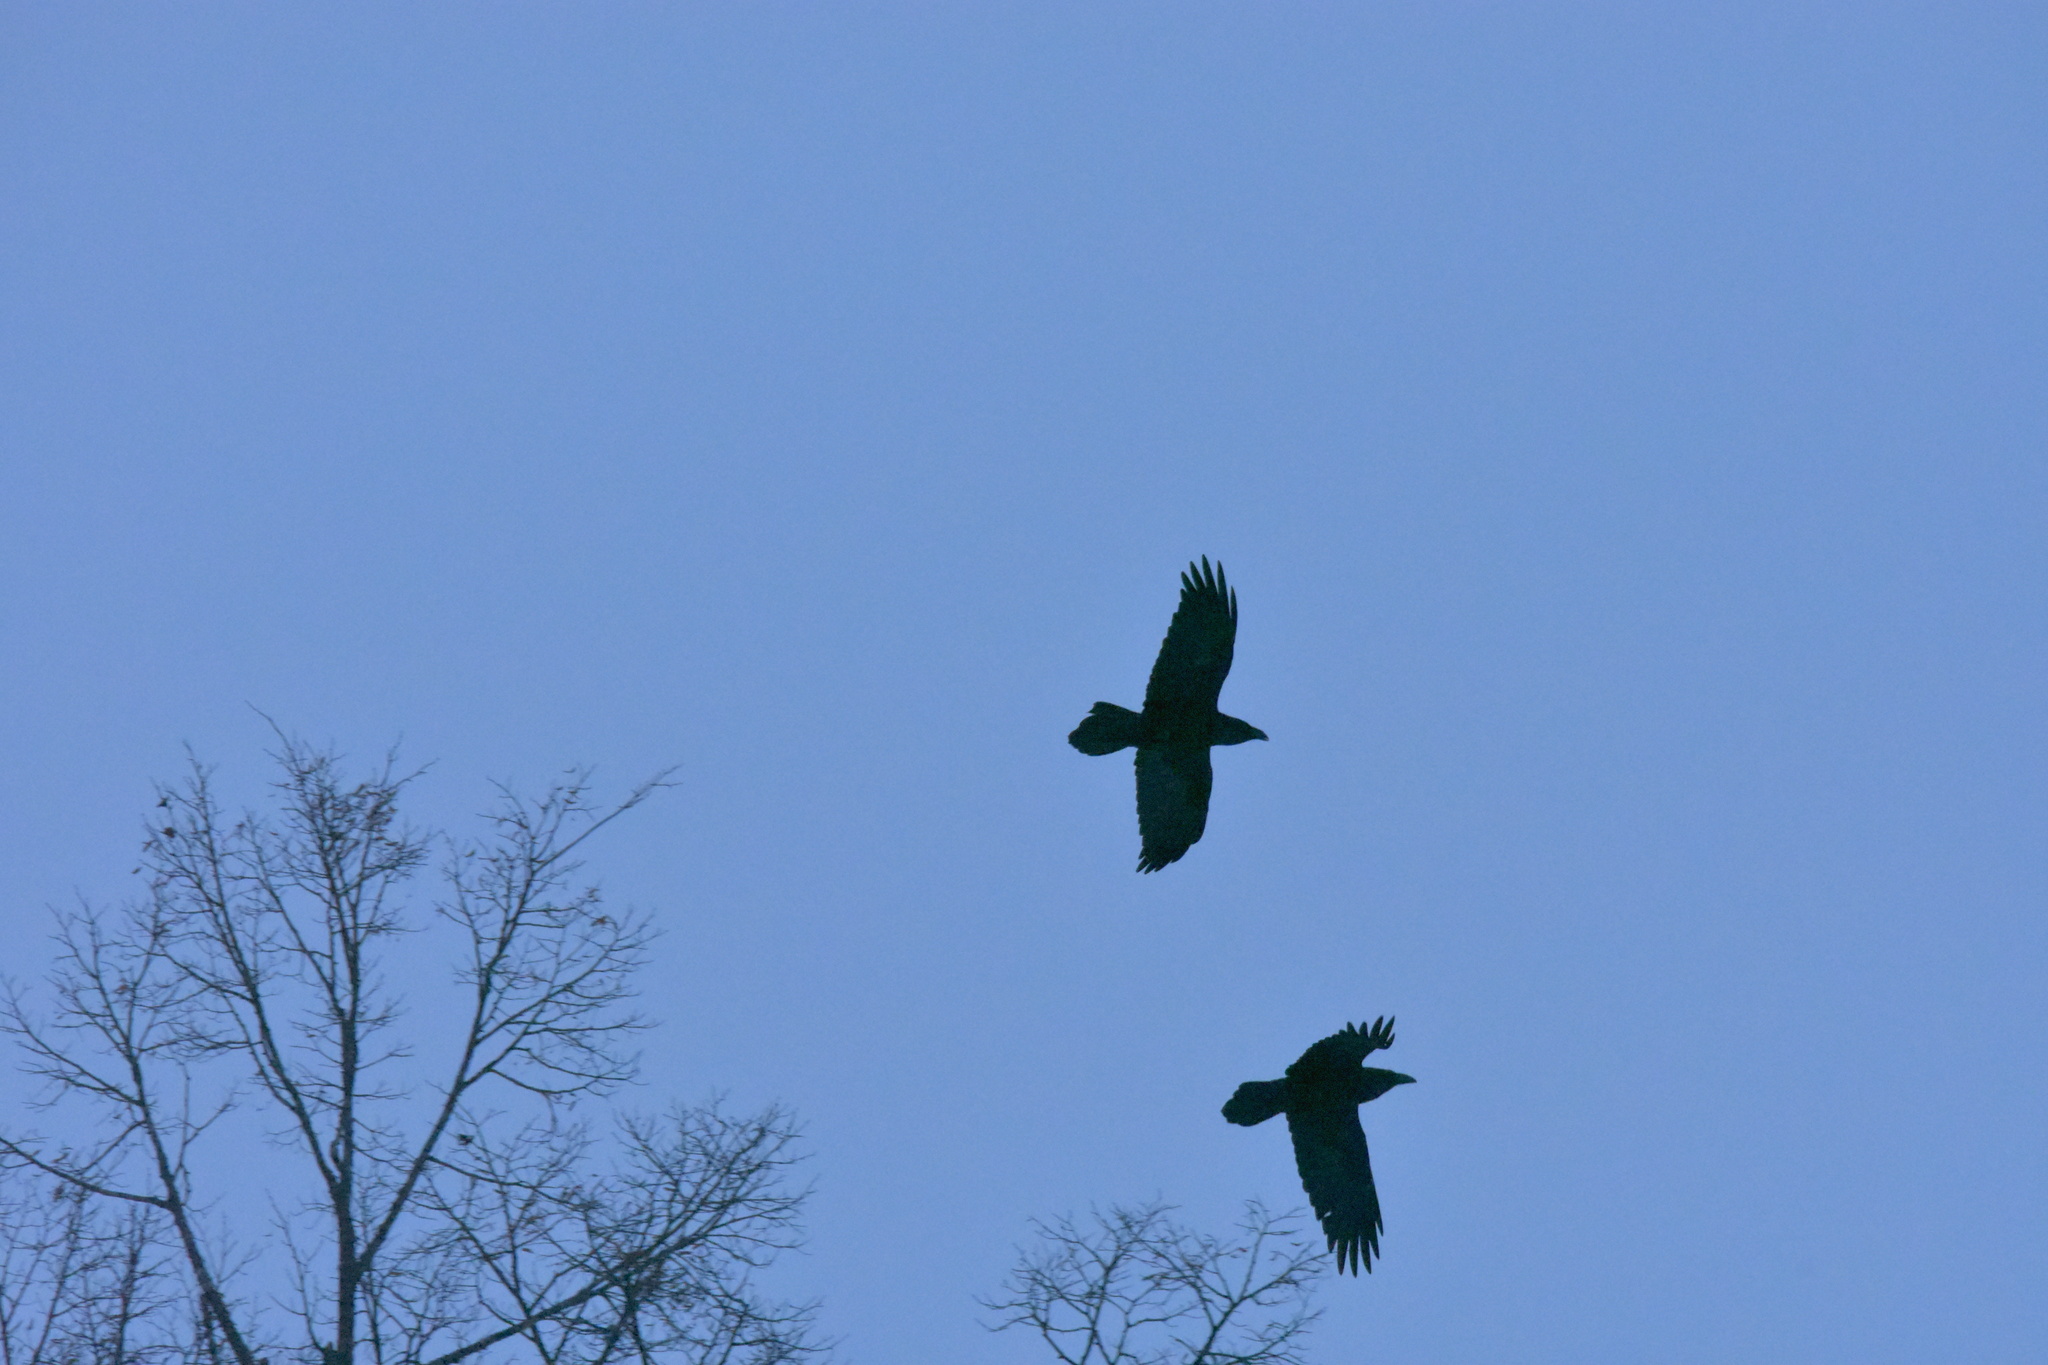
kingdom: Animalia
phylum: Chordata
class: Aves
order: Passeriformes
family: Corvidae
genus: Corvus
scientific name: Corvus corax
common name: Common raven
